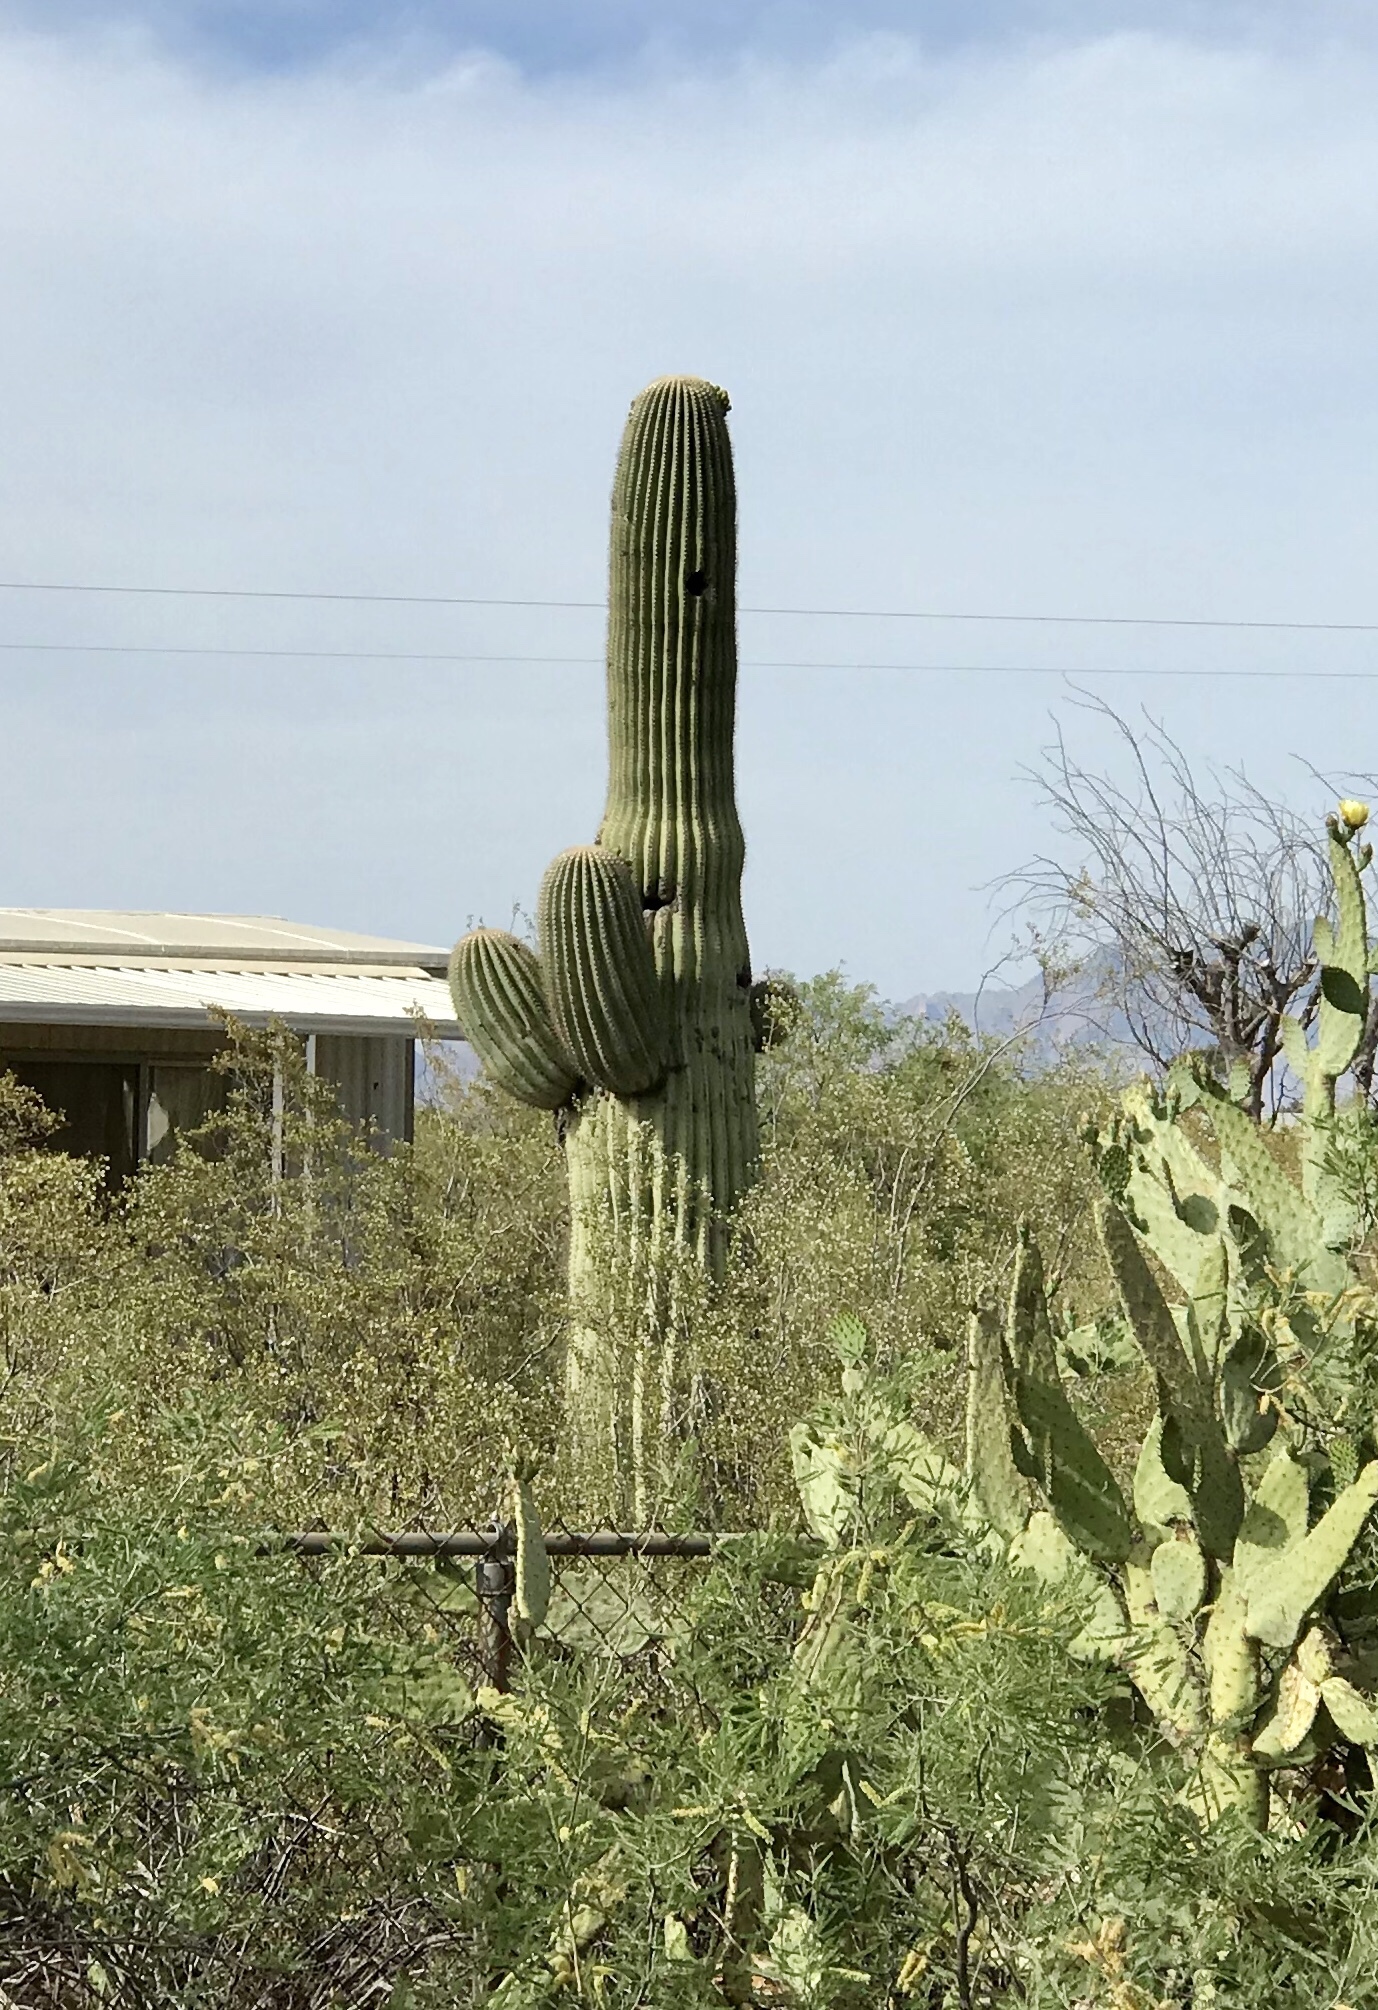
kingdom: Plantae
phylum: Tracheophyta
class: Magnoliopsida
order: Caryophyllales
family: Cactaceae
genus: Carnegiea
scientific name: Carnegiea gigantea
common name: Saguaro
